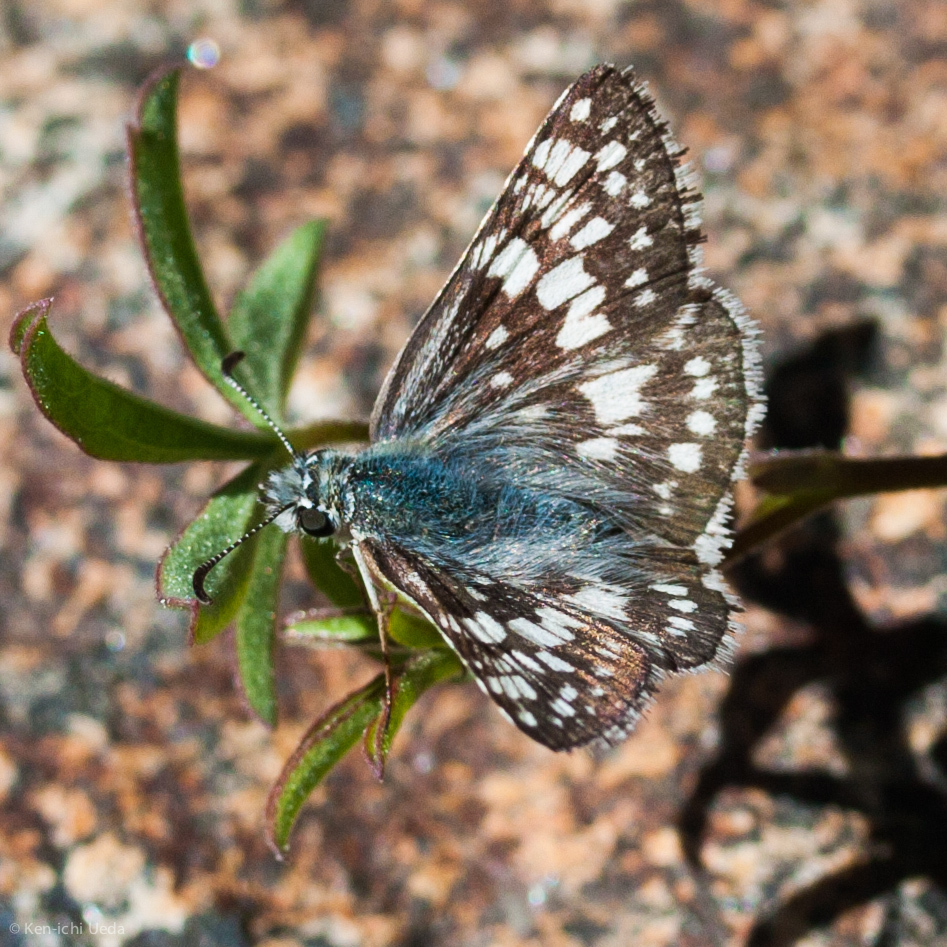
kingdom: Animalia
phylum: Arthropoda
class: Insecta
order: Lepidoptera
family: Hesperiidae
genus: Burnsius
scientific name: Burnsius communis
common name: Common checkered-skipper
